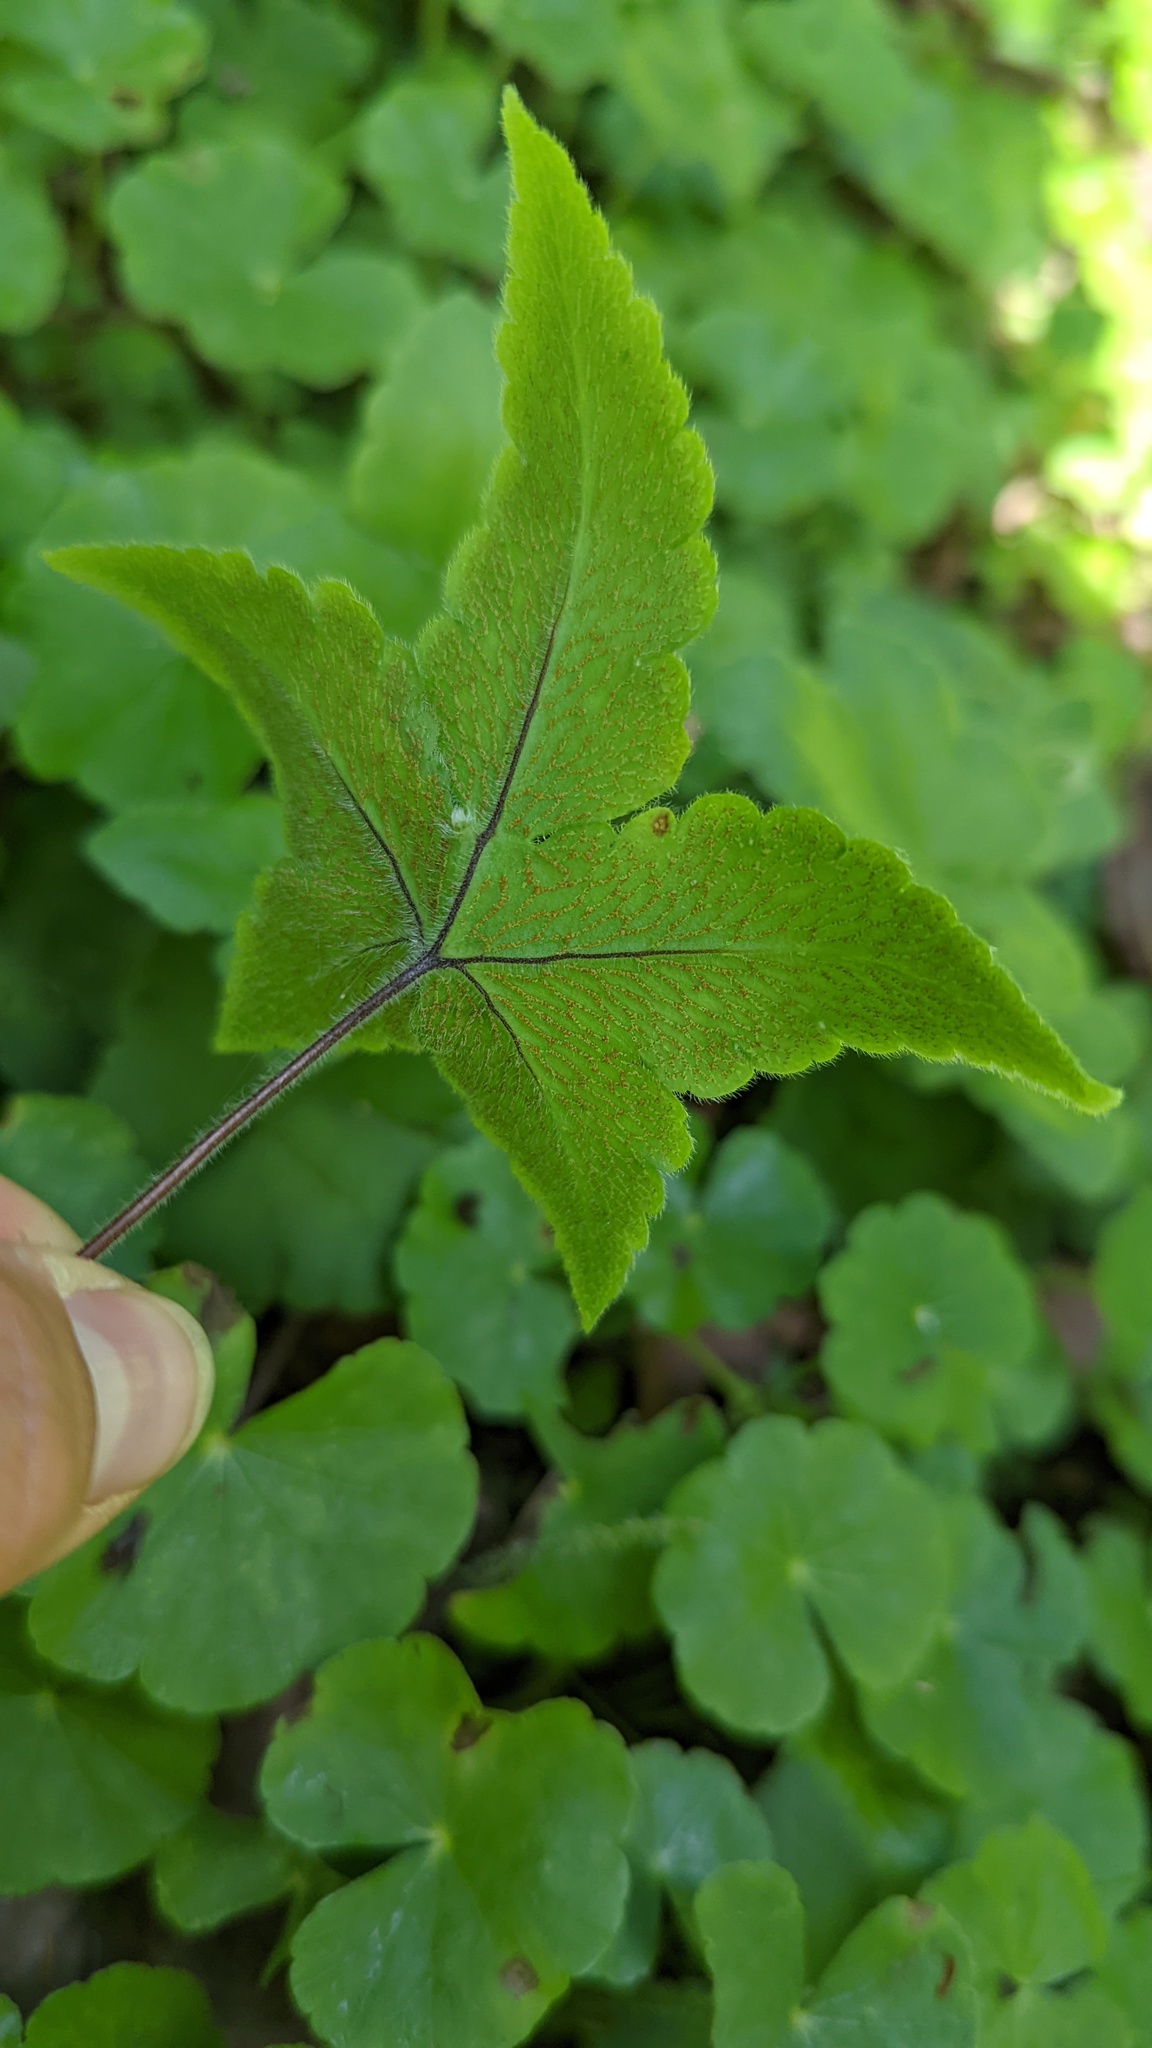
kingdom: Plantae
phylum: Tracheophyta
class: Polypodiopsida
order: Polypodiales
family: Pteridaceae
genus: Hemionitis
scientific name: Hemionitis palmata
